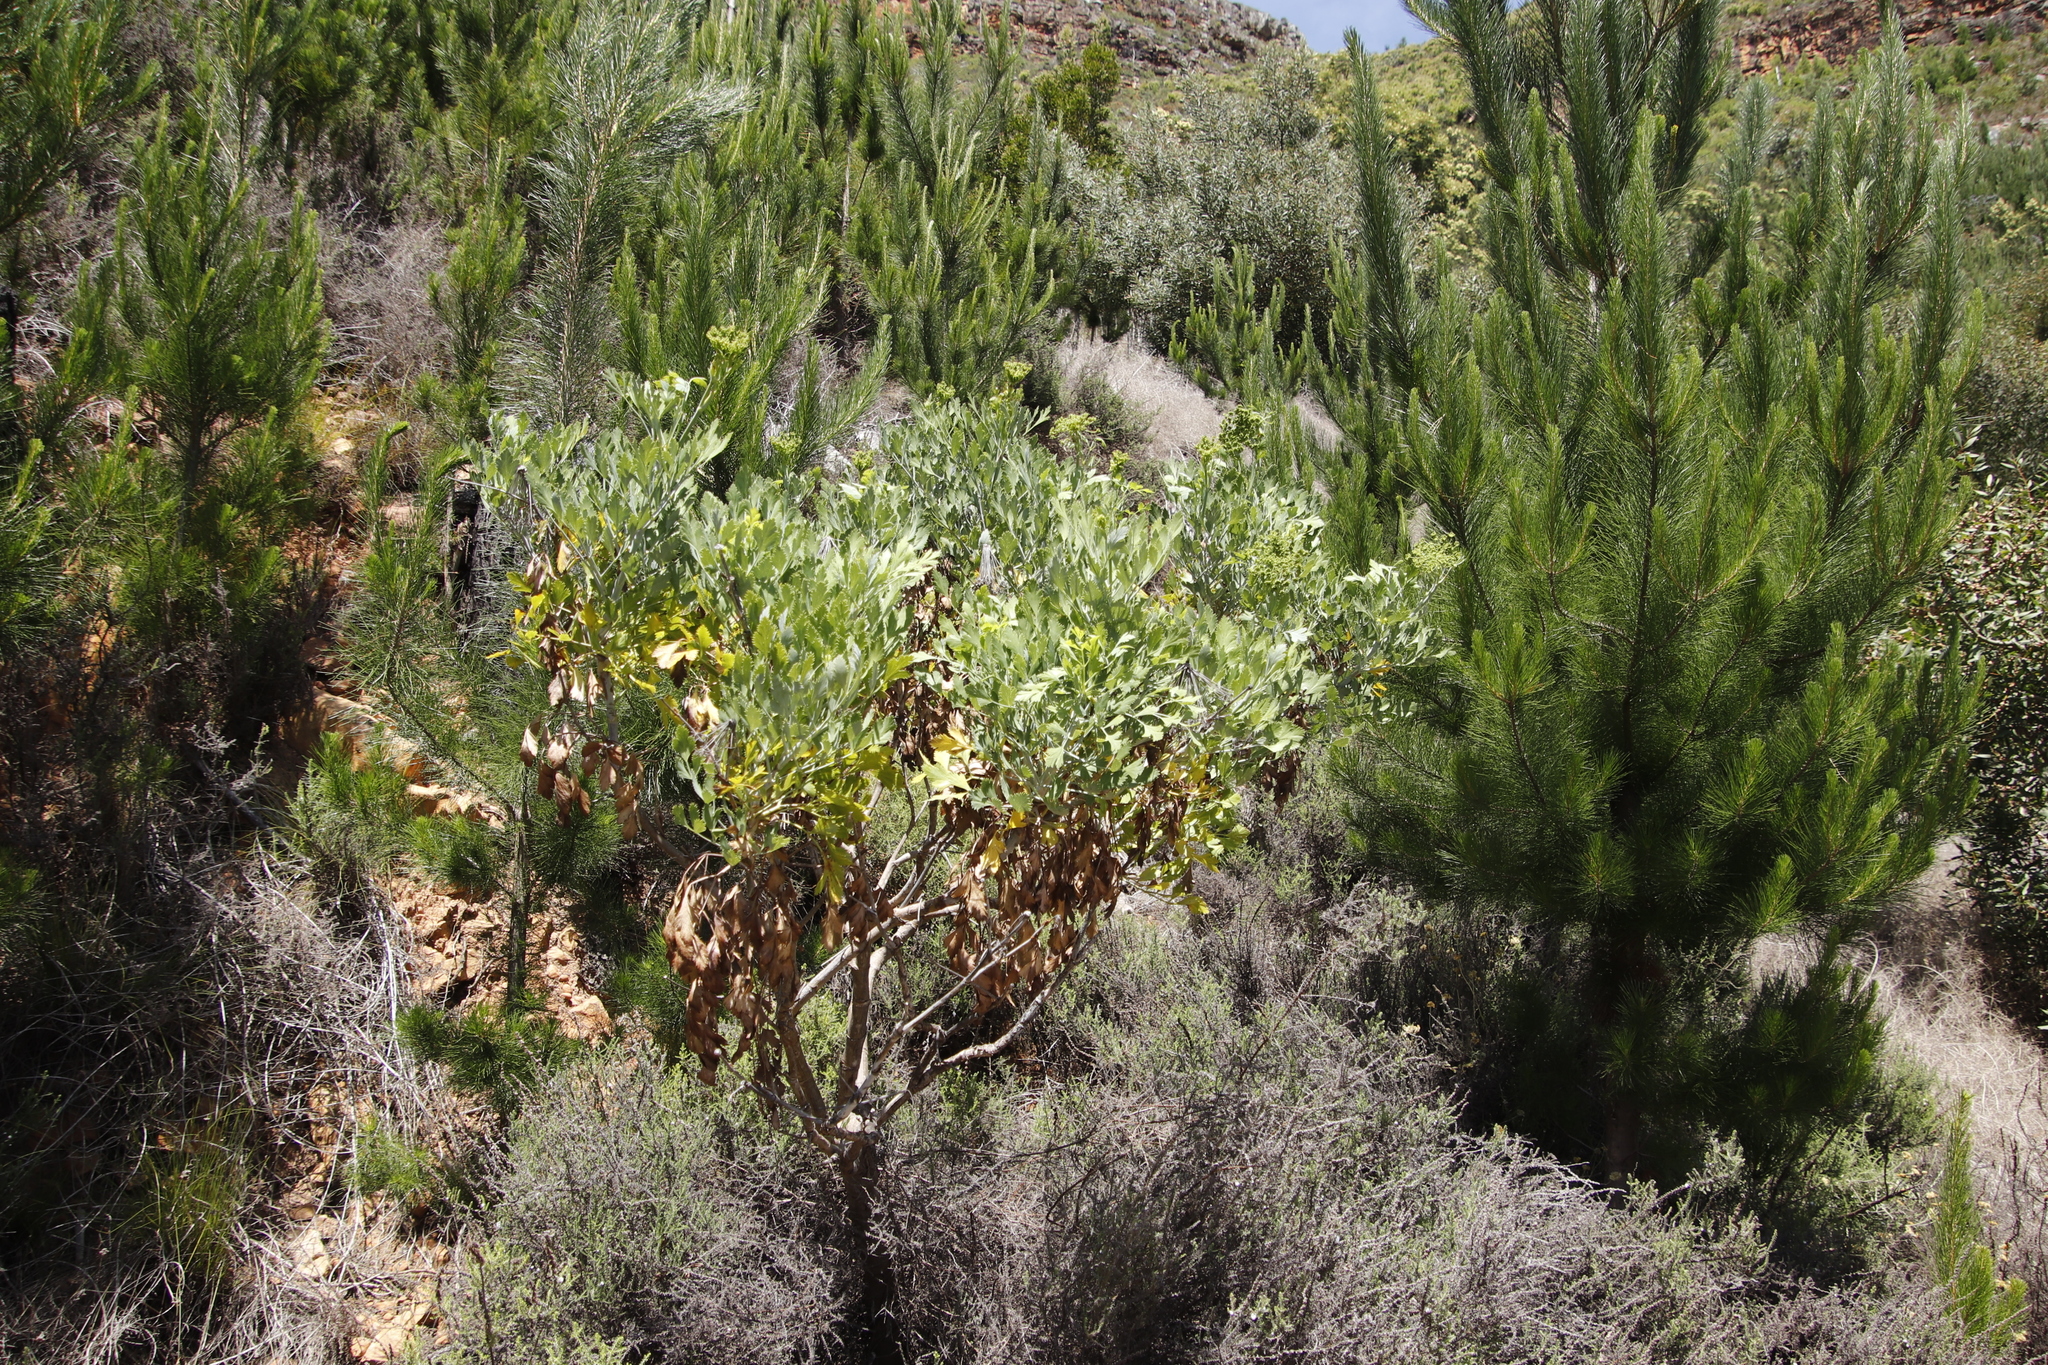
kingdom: Plantae
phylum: Tracheophyta
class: Magnoliopsida
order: Apiales
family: Apiaceae
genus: Notobubon
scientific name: Notobubon galbanum
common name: Blisterbush
